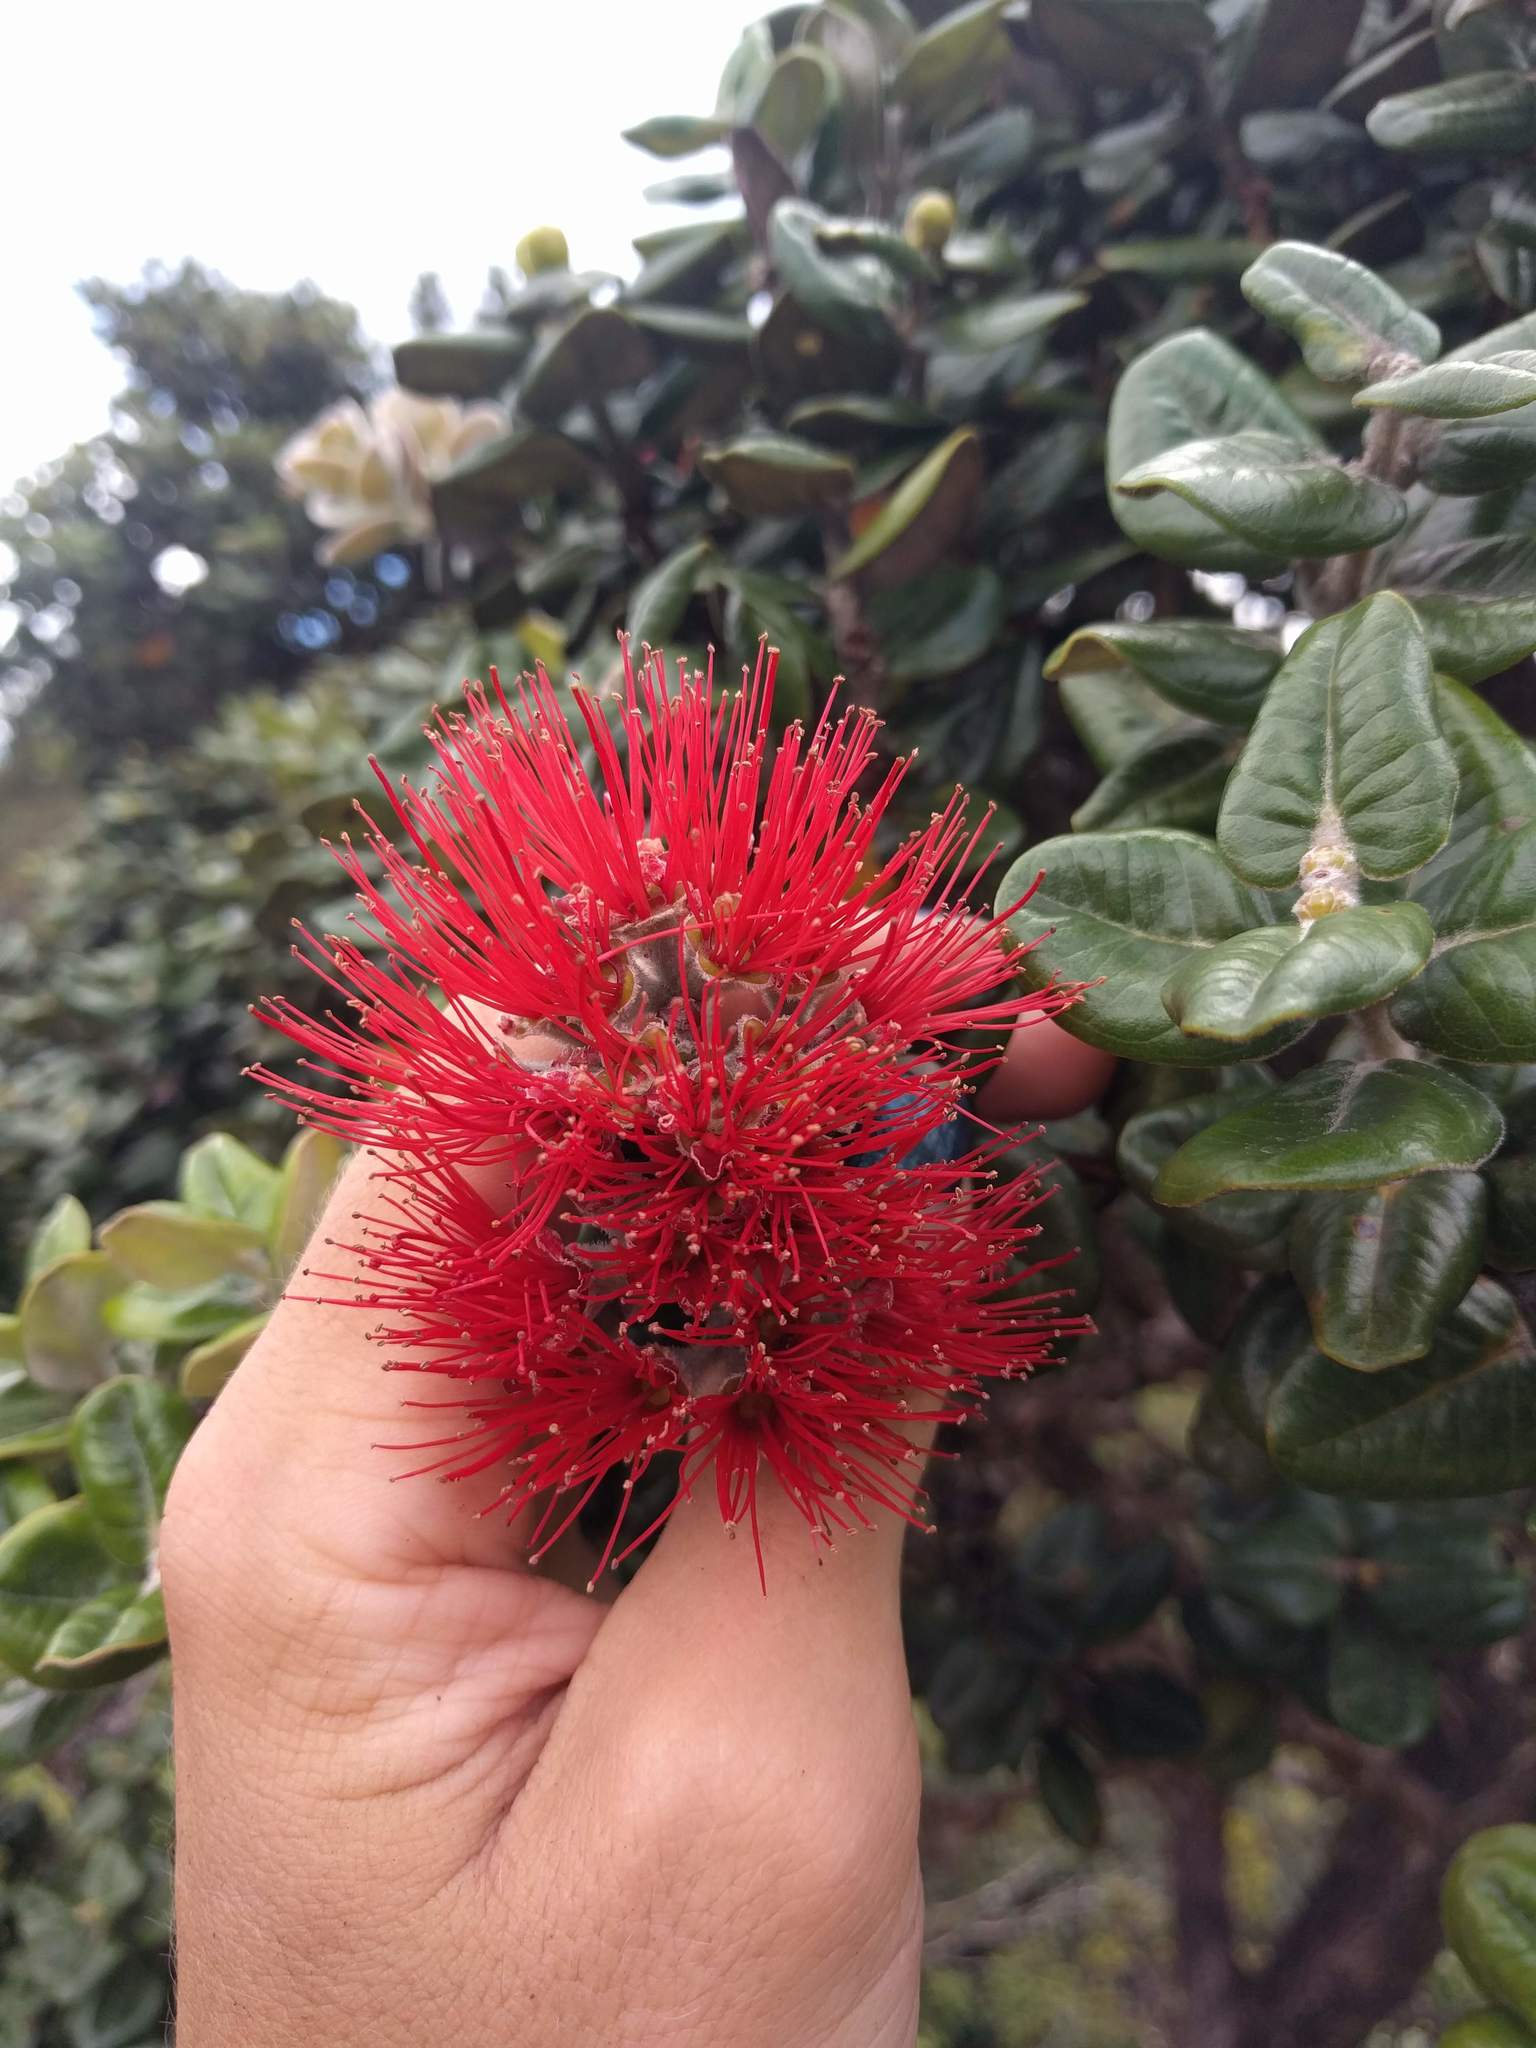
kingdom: Plantae
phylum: Tracheophyta
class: Magnoliopsida
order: Myrtales
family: Myrtaceae
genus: Metrosideros
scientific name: Metrosideros polymorpha
